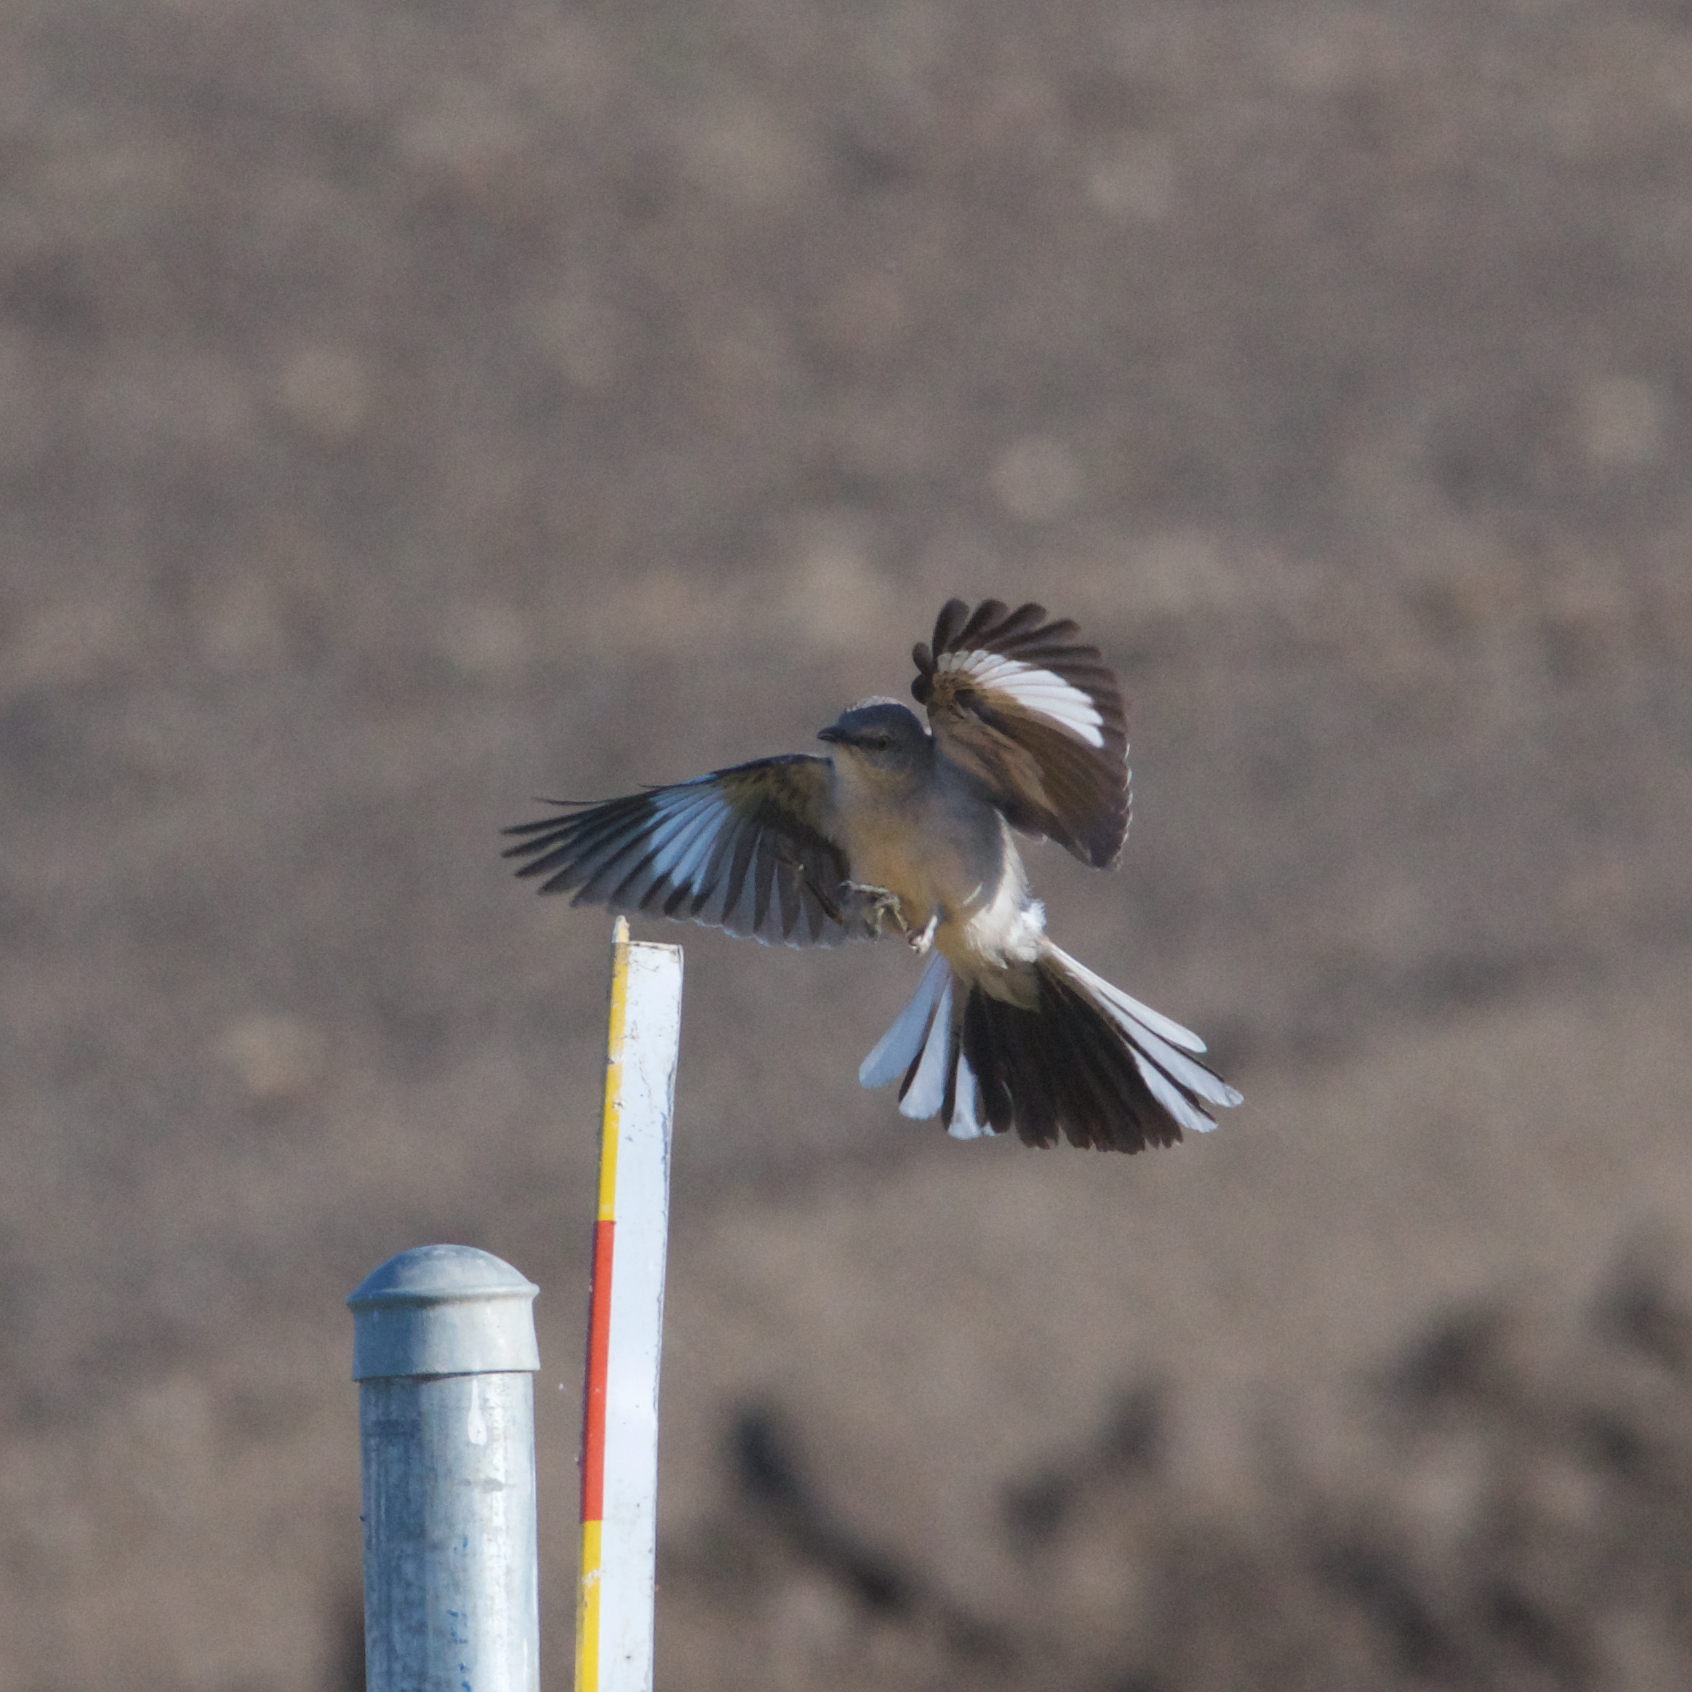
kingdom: Animalia
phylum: Chordata
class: Aves
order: Passeriformes
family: Mimidae
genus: Mimus
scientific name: Mimus polyglottos
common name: Northern mockingbird
